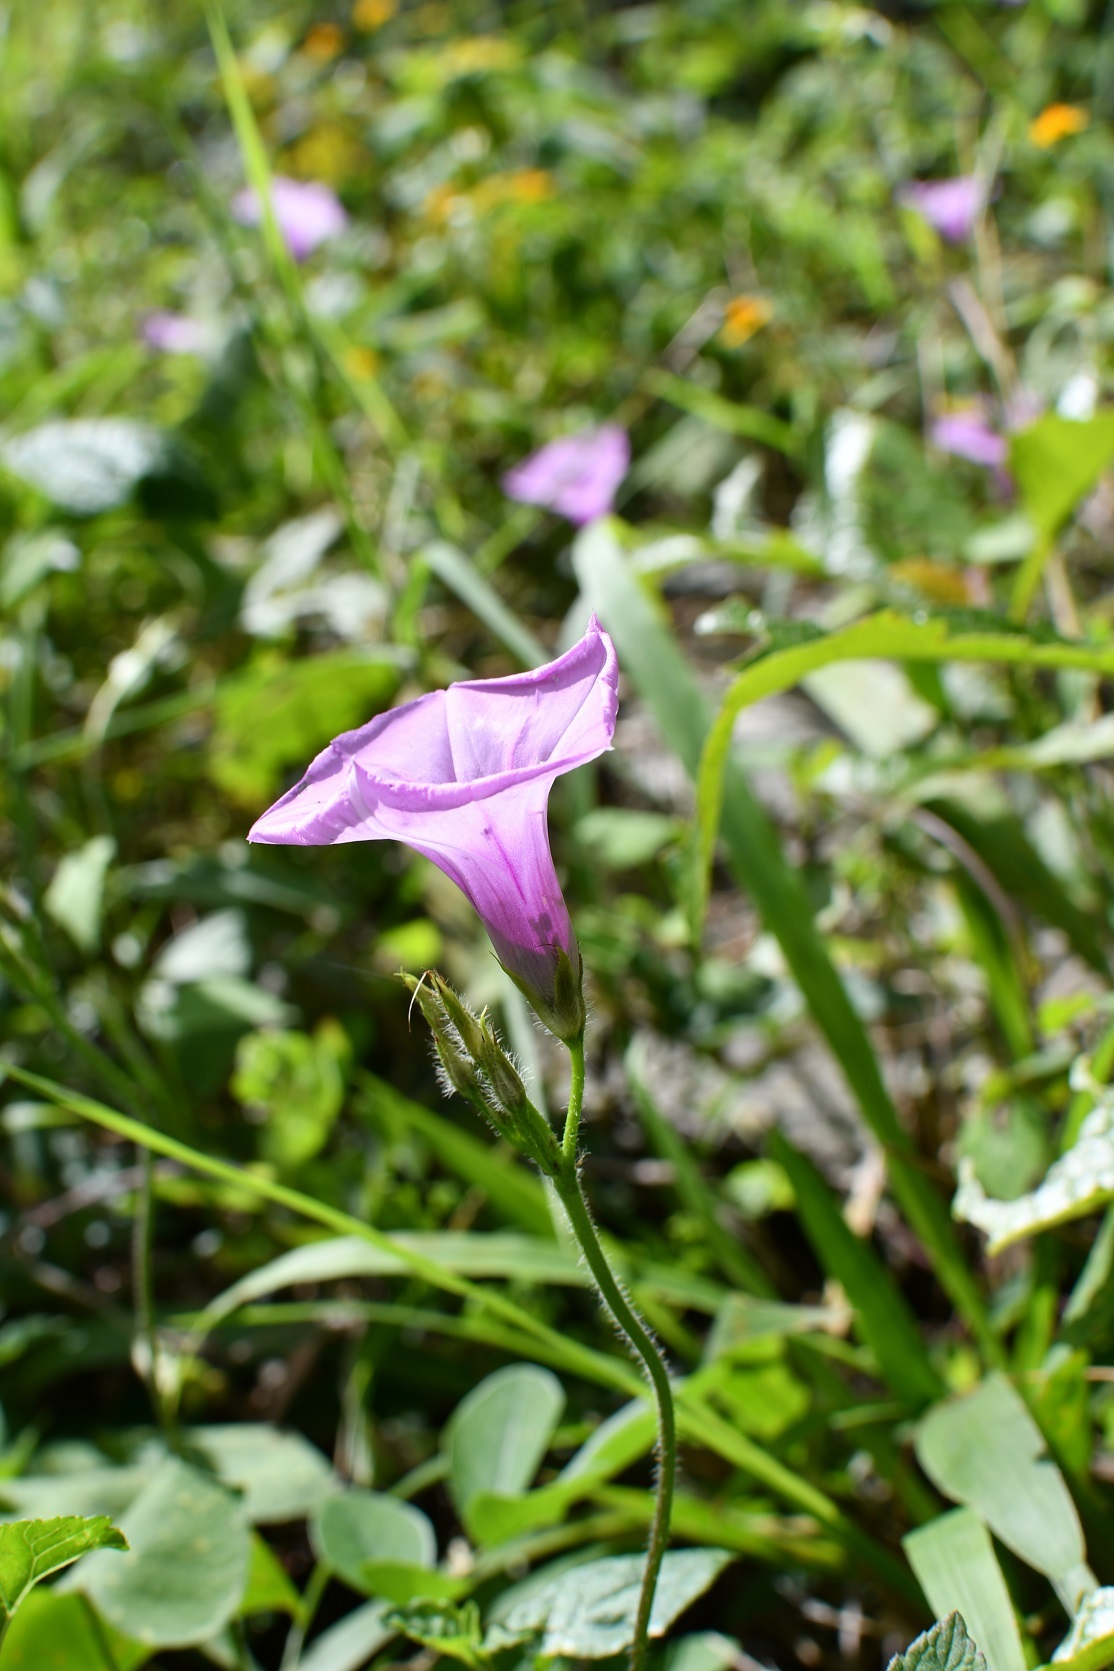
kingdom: Plantae
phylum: Tracheophyta
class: Magnoliopsida
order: Solanales
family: Convolvulaceae
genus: Ipomoea
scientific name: Ipomoea trifida
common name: Cotton morningglory
